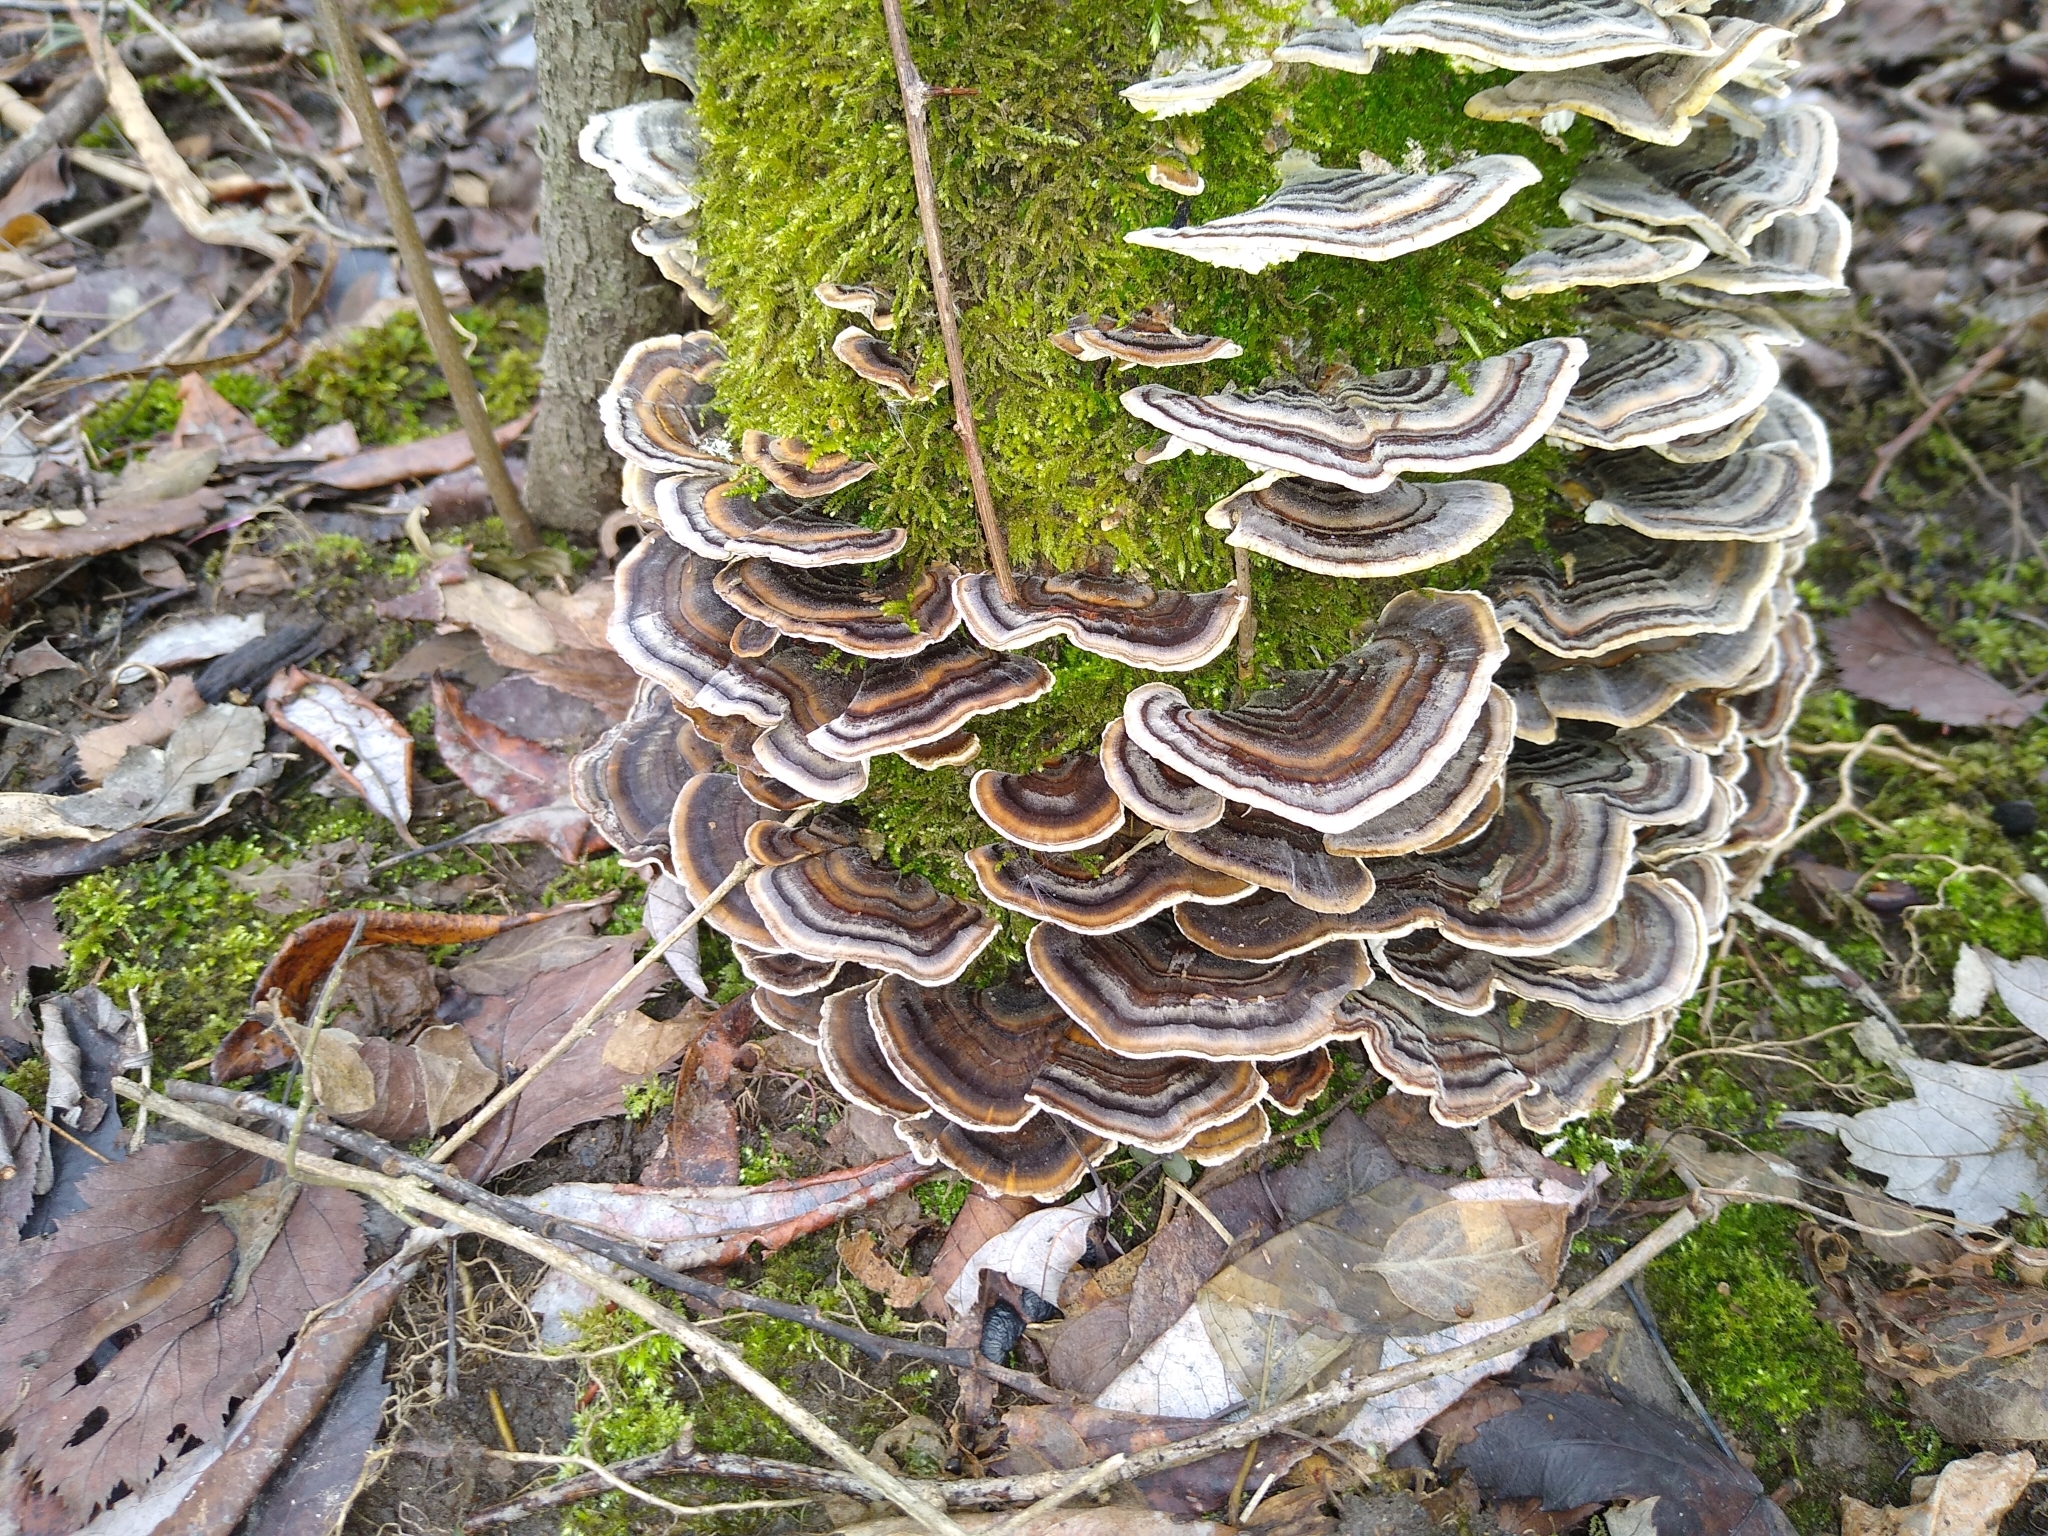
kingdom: Fungi
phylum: Basidiomycota
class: Agaricomycetes
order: Polyporales
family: Polyporaceae
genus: Trametes
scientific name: Trametes versicolor
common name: Turkeytail
